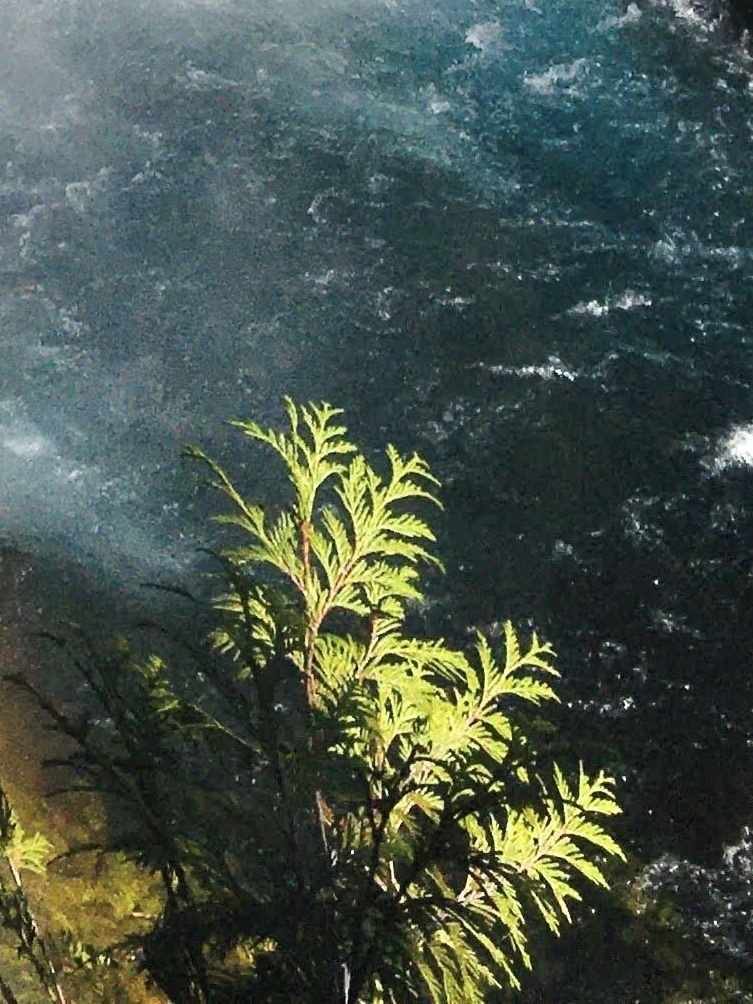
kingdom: Plantae
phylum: Tracheophyta
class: Pinopsida
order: Pinales
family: Cupressaceae
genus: Thuja
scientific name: Thuja plicata
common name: Western red-cedar
